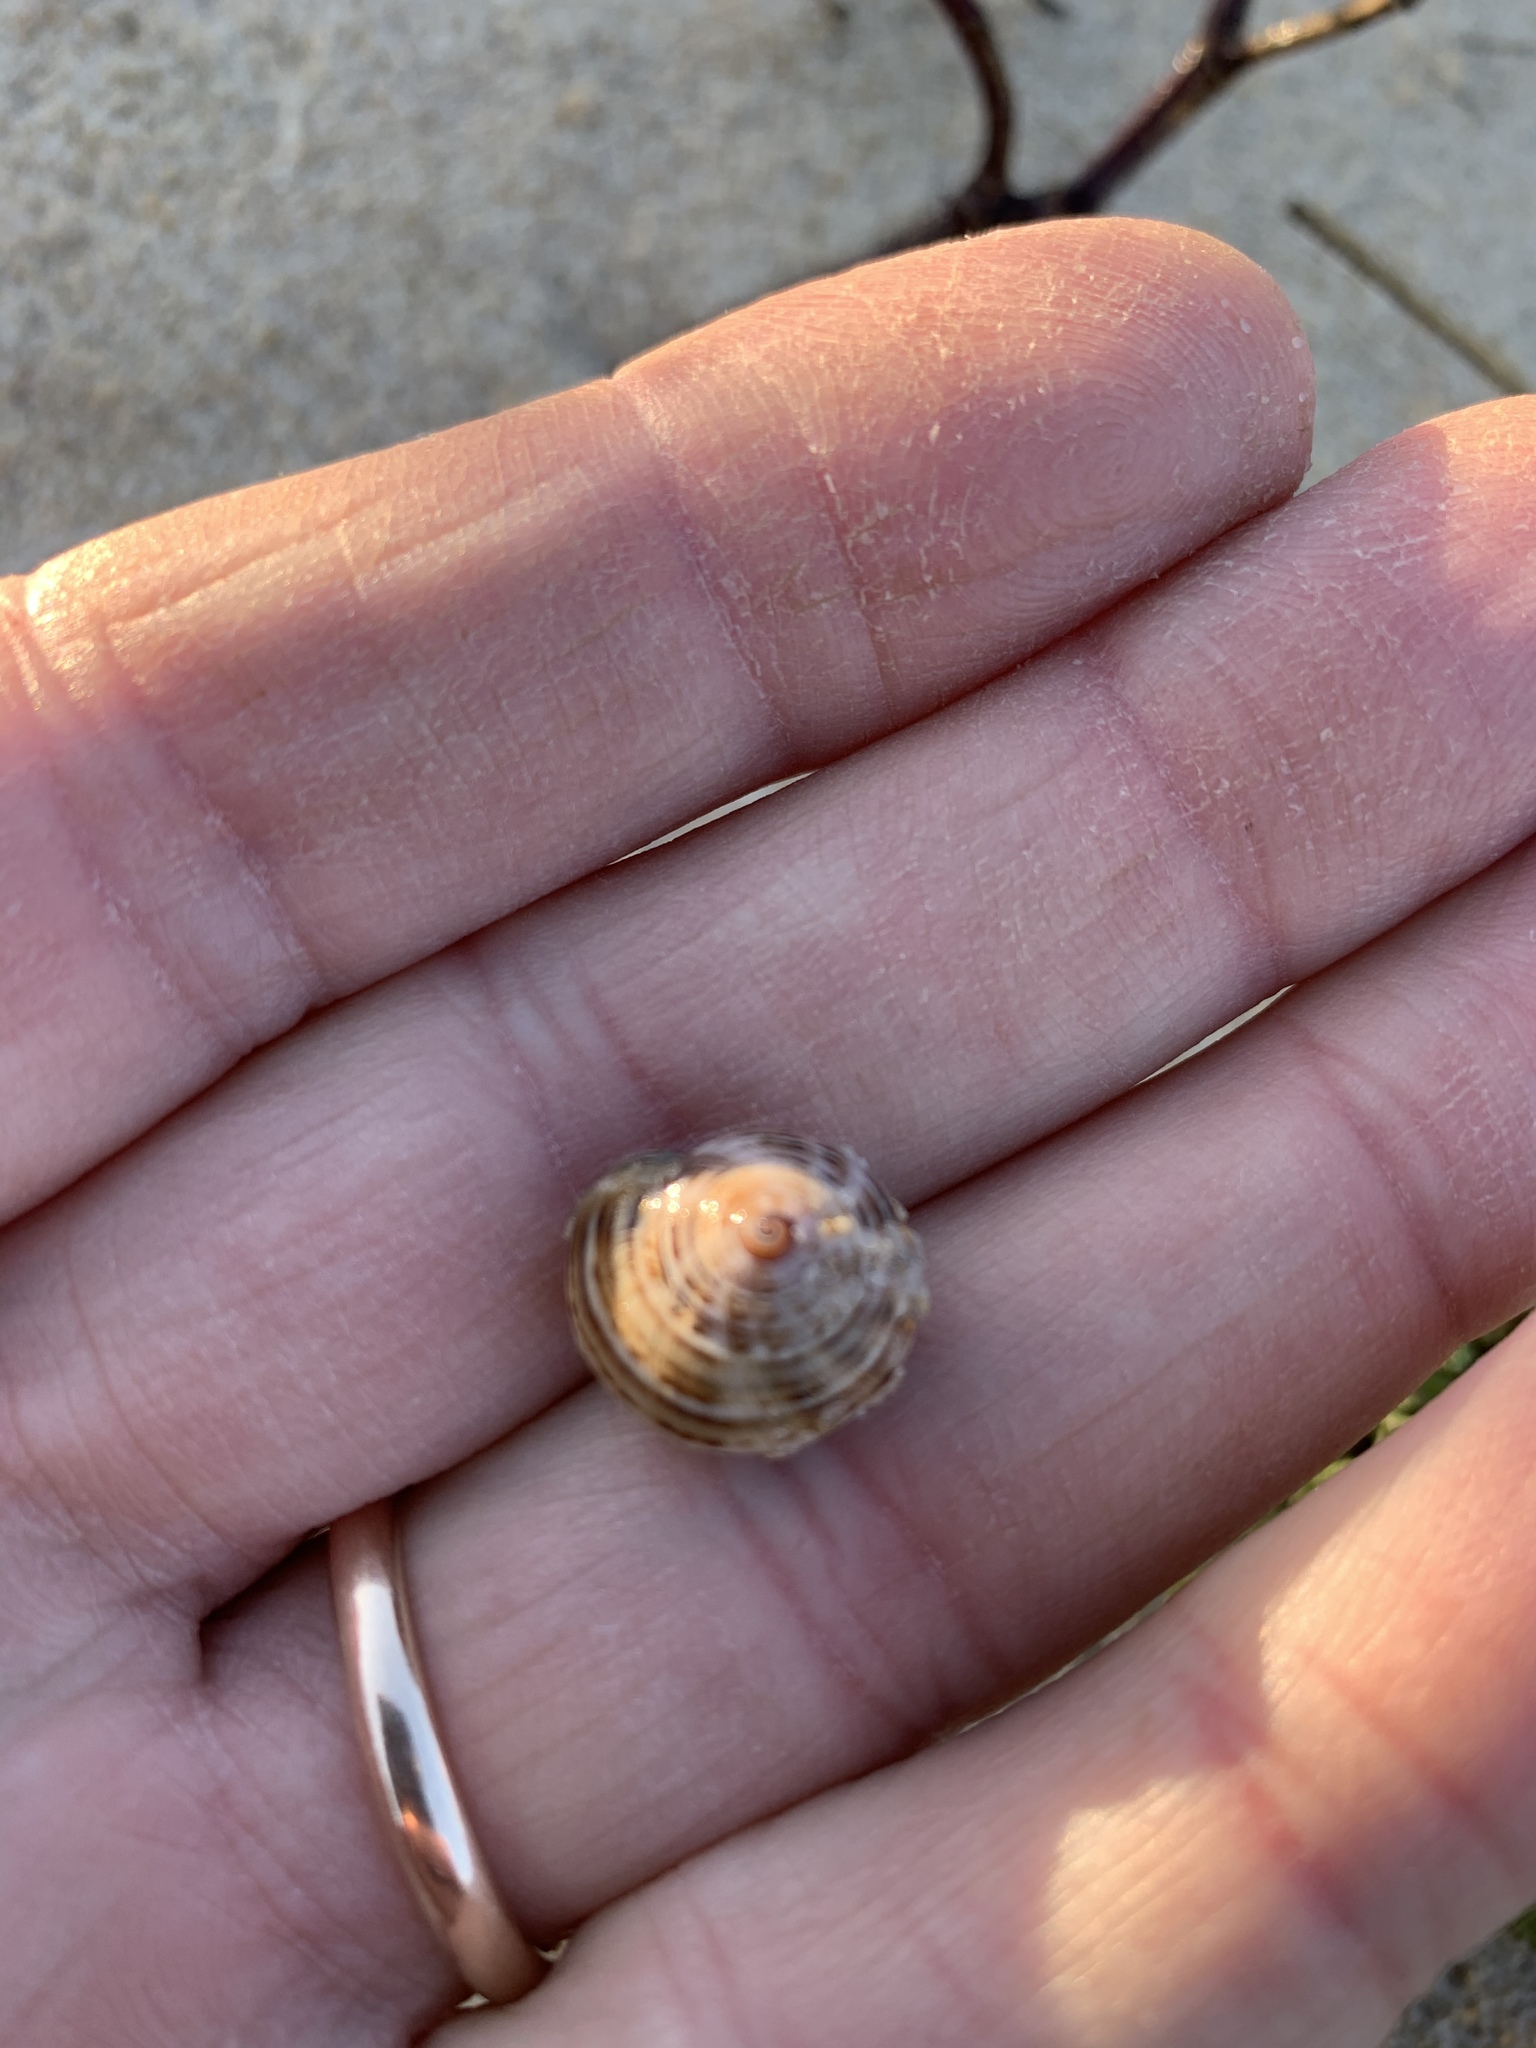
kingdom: Animalia
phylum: Mollusca
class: Gastropoda
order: Stylommatophora
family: Helicidae
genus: Theba
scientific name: Theba pisana
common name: White snail
